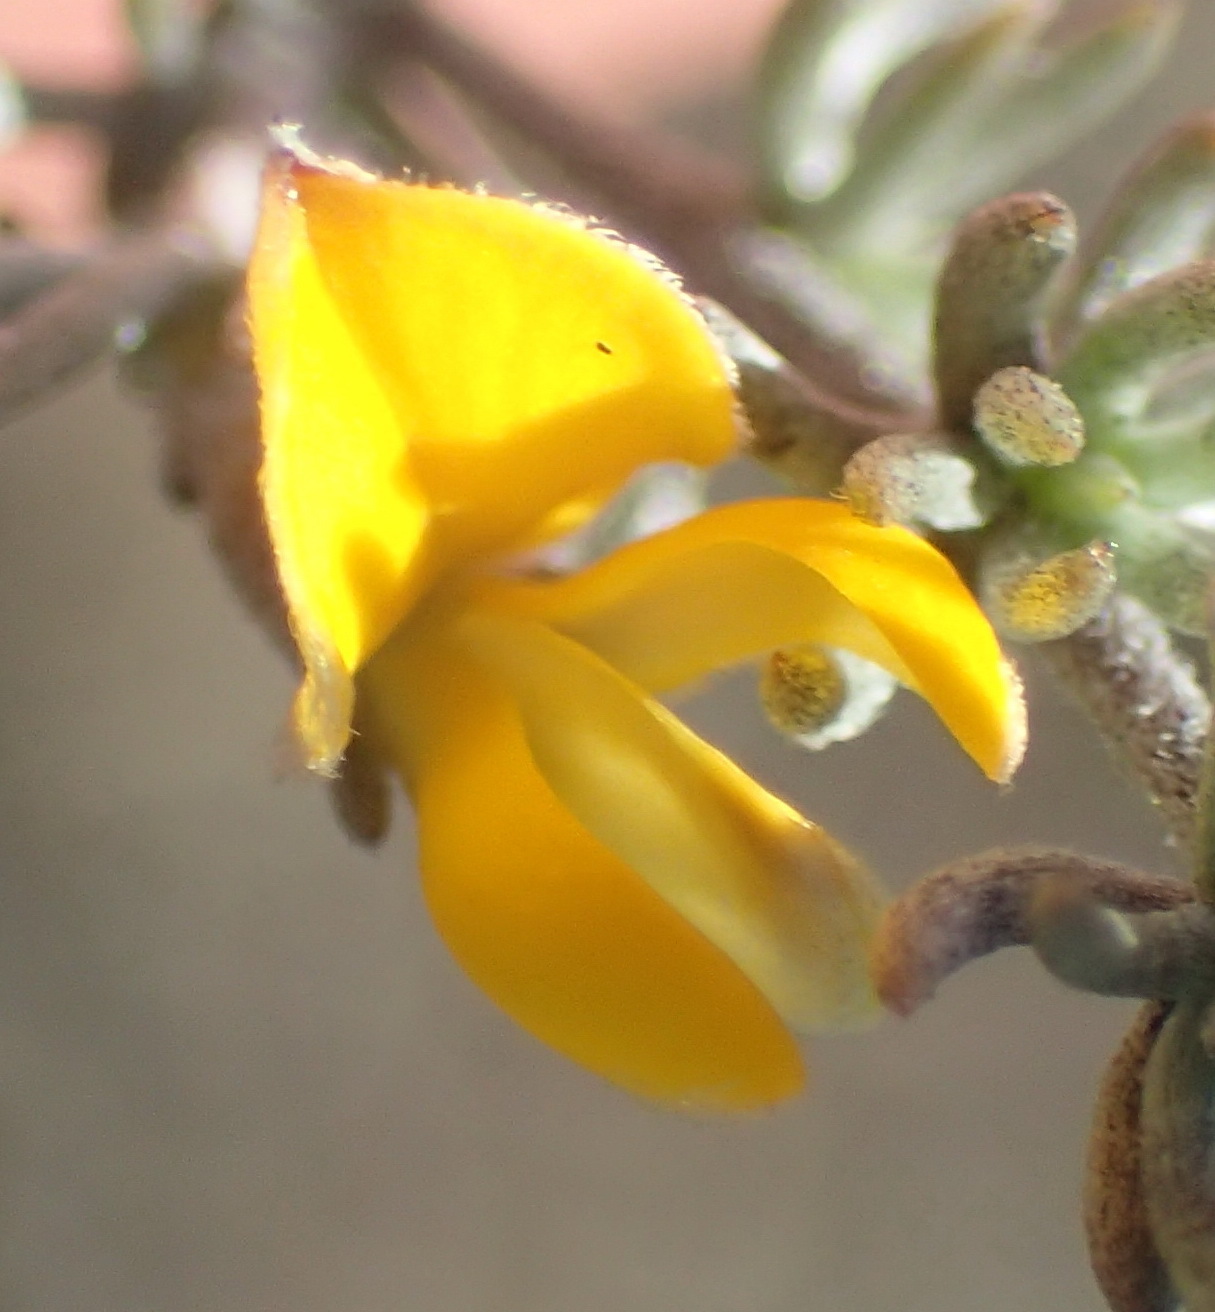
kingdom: Plantae
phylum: Tracheophyta
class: Magnoliopsida
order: Fabales
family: Fabaceae
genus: Aspalathus
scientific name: Aspalathus rubens
